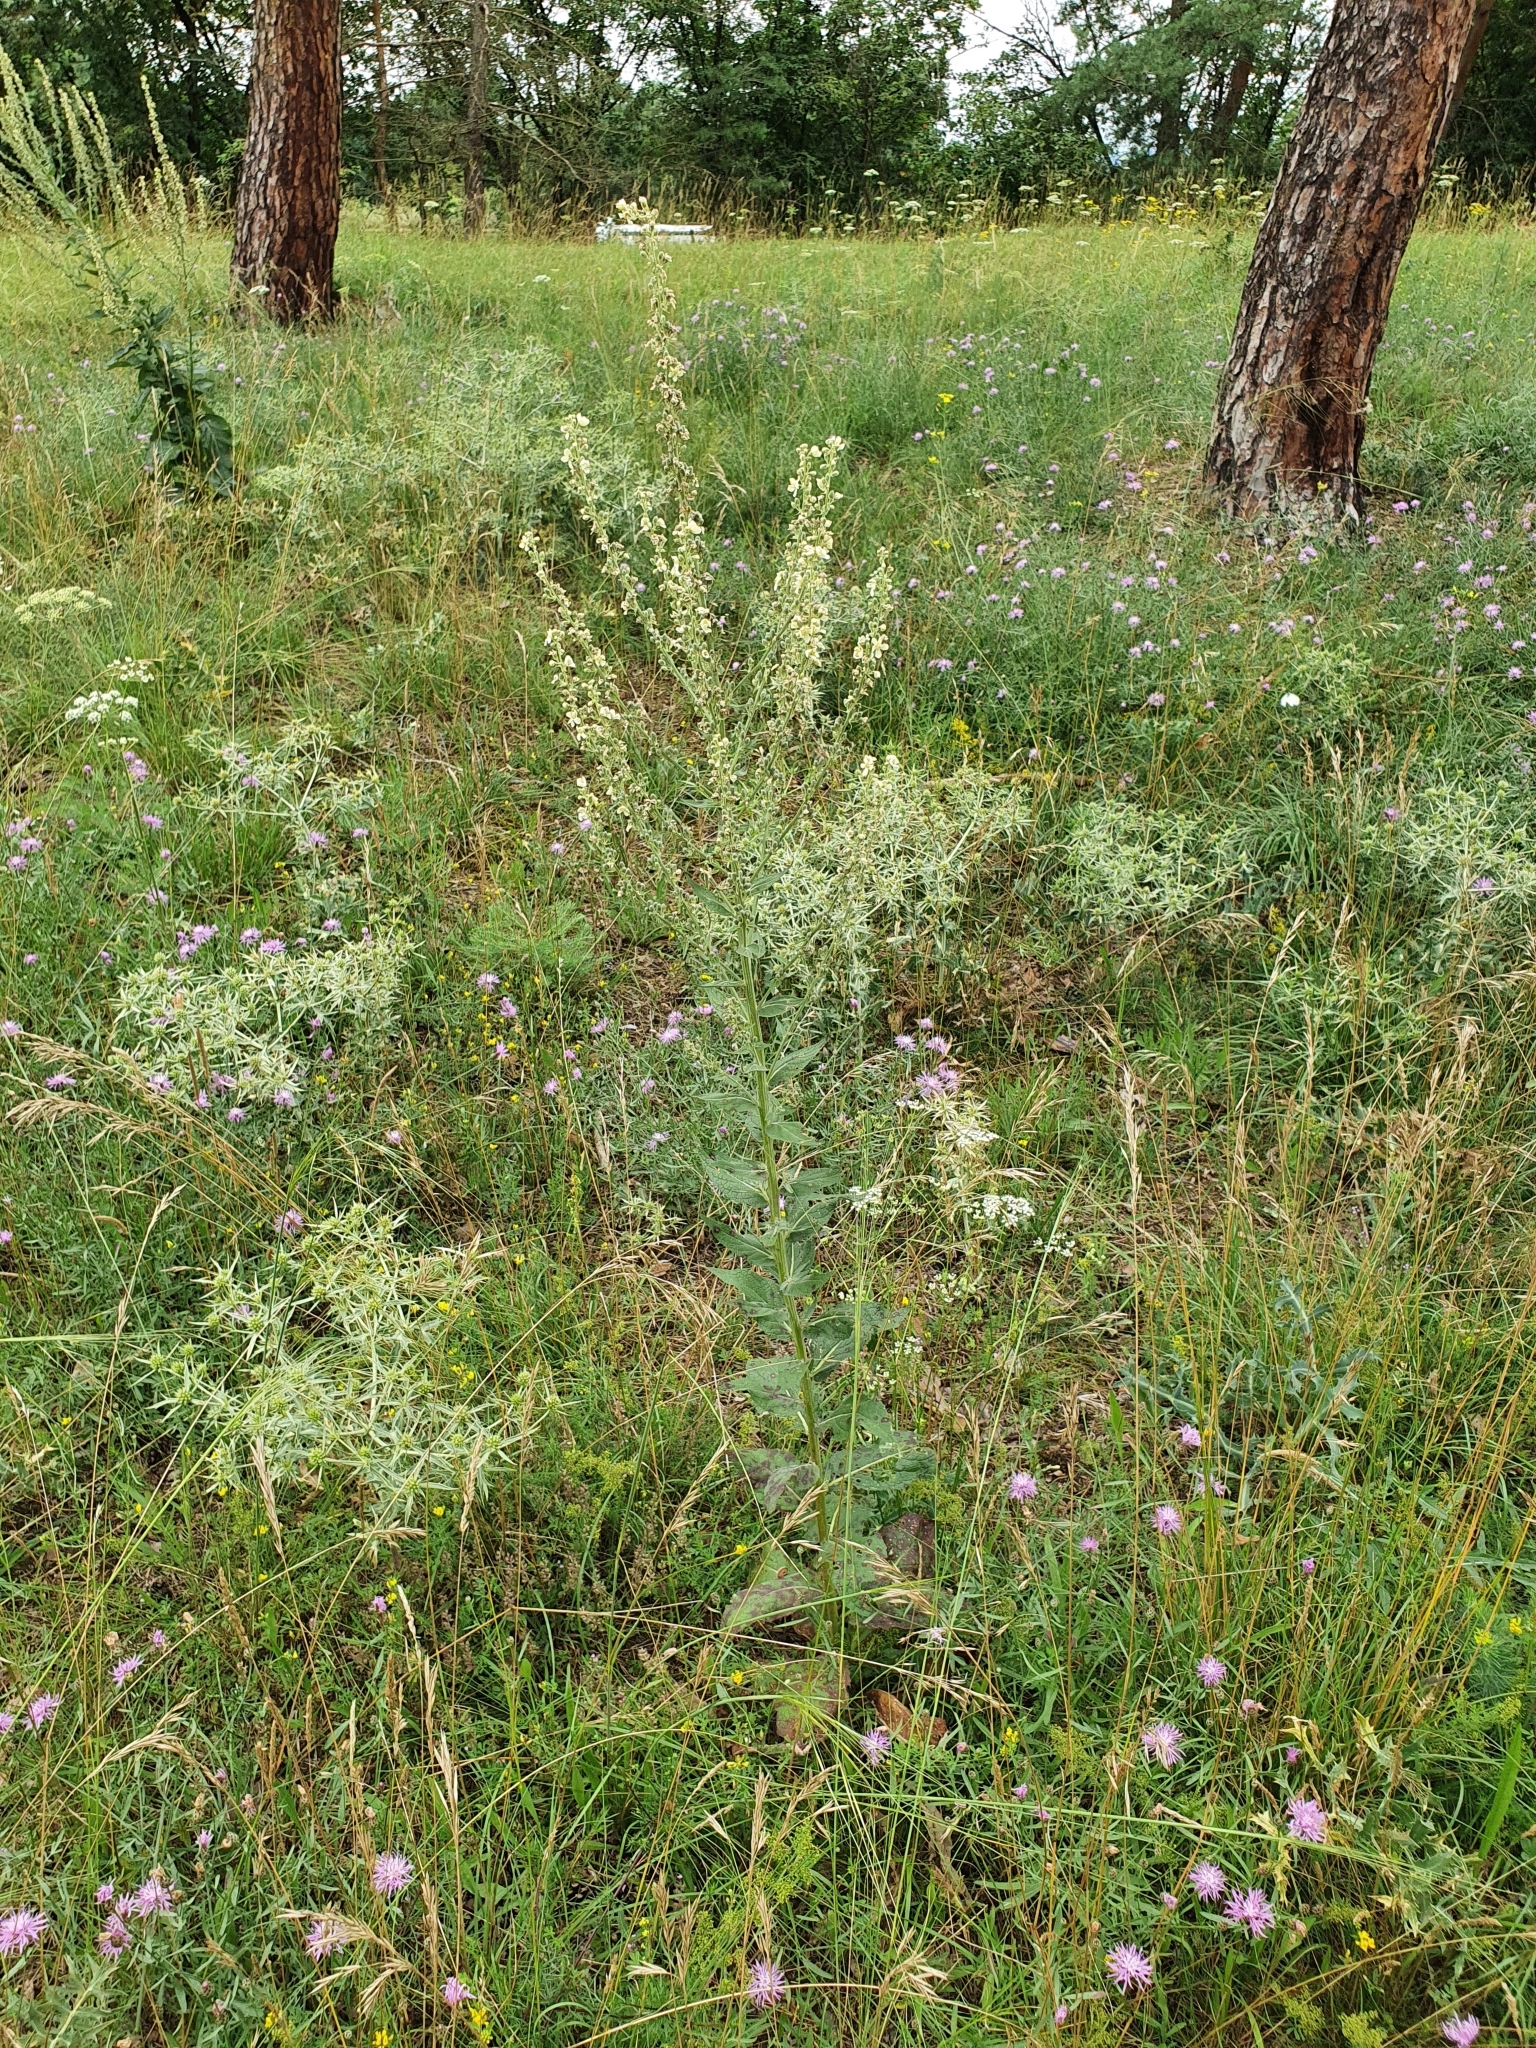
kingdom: Plantae
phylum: Tracheophyta
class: Magnoliopsida
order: Lamiales
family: Scrophulariaceae
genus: Verbascum
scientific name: Verbascum lychnitis
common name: White mullein
